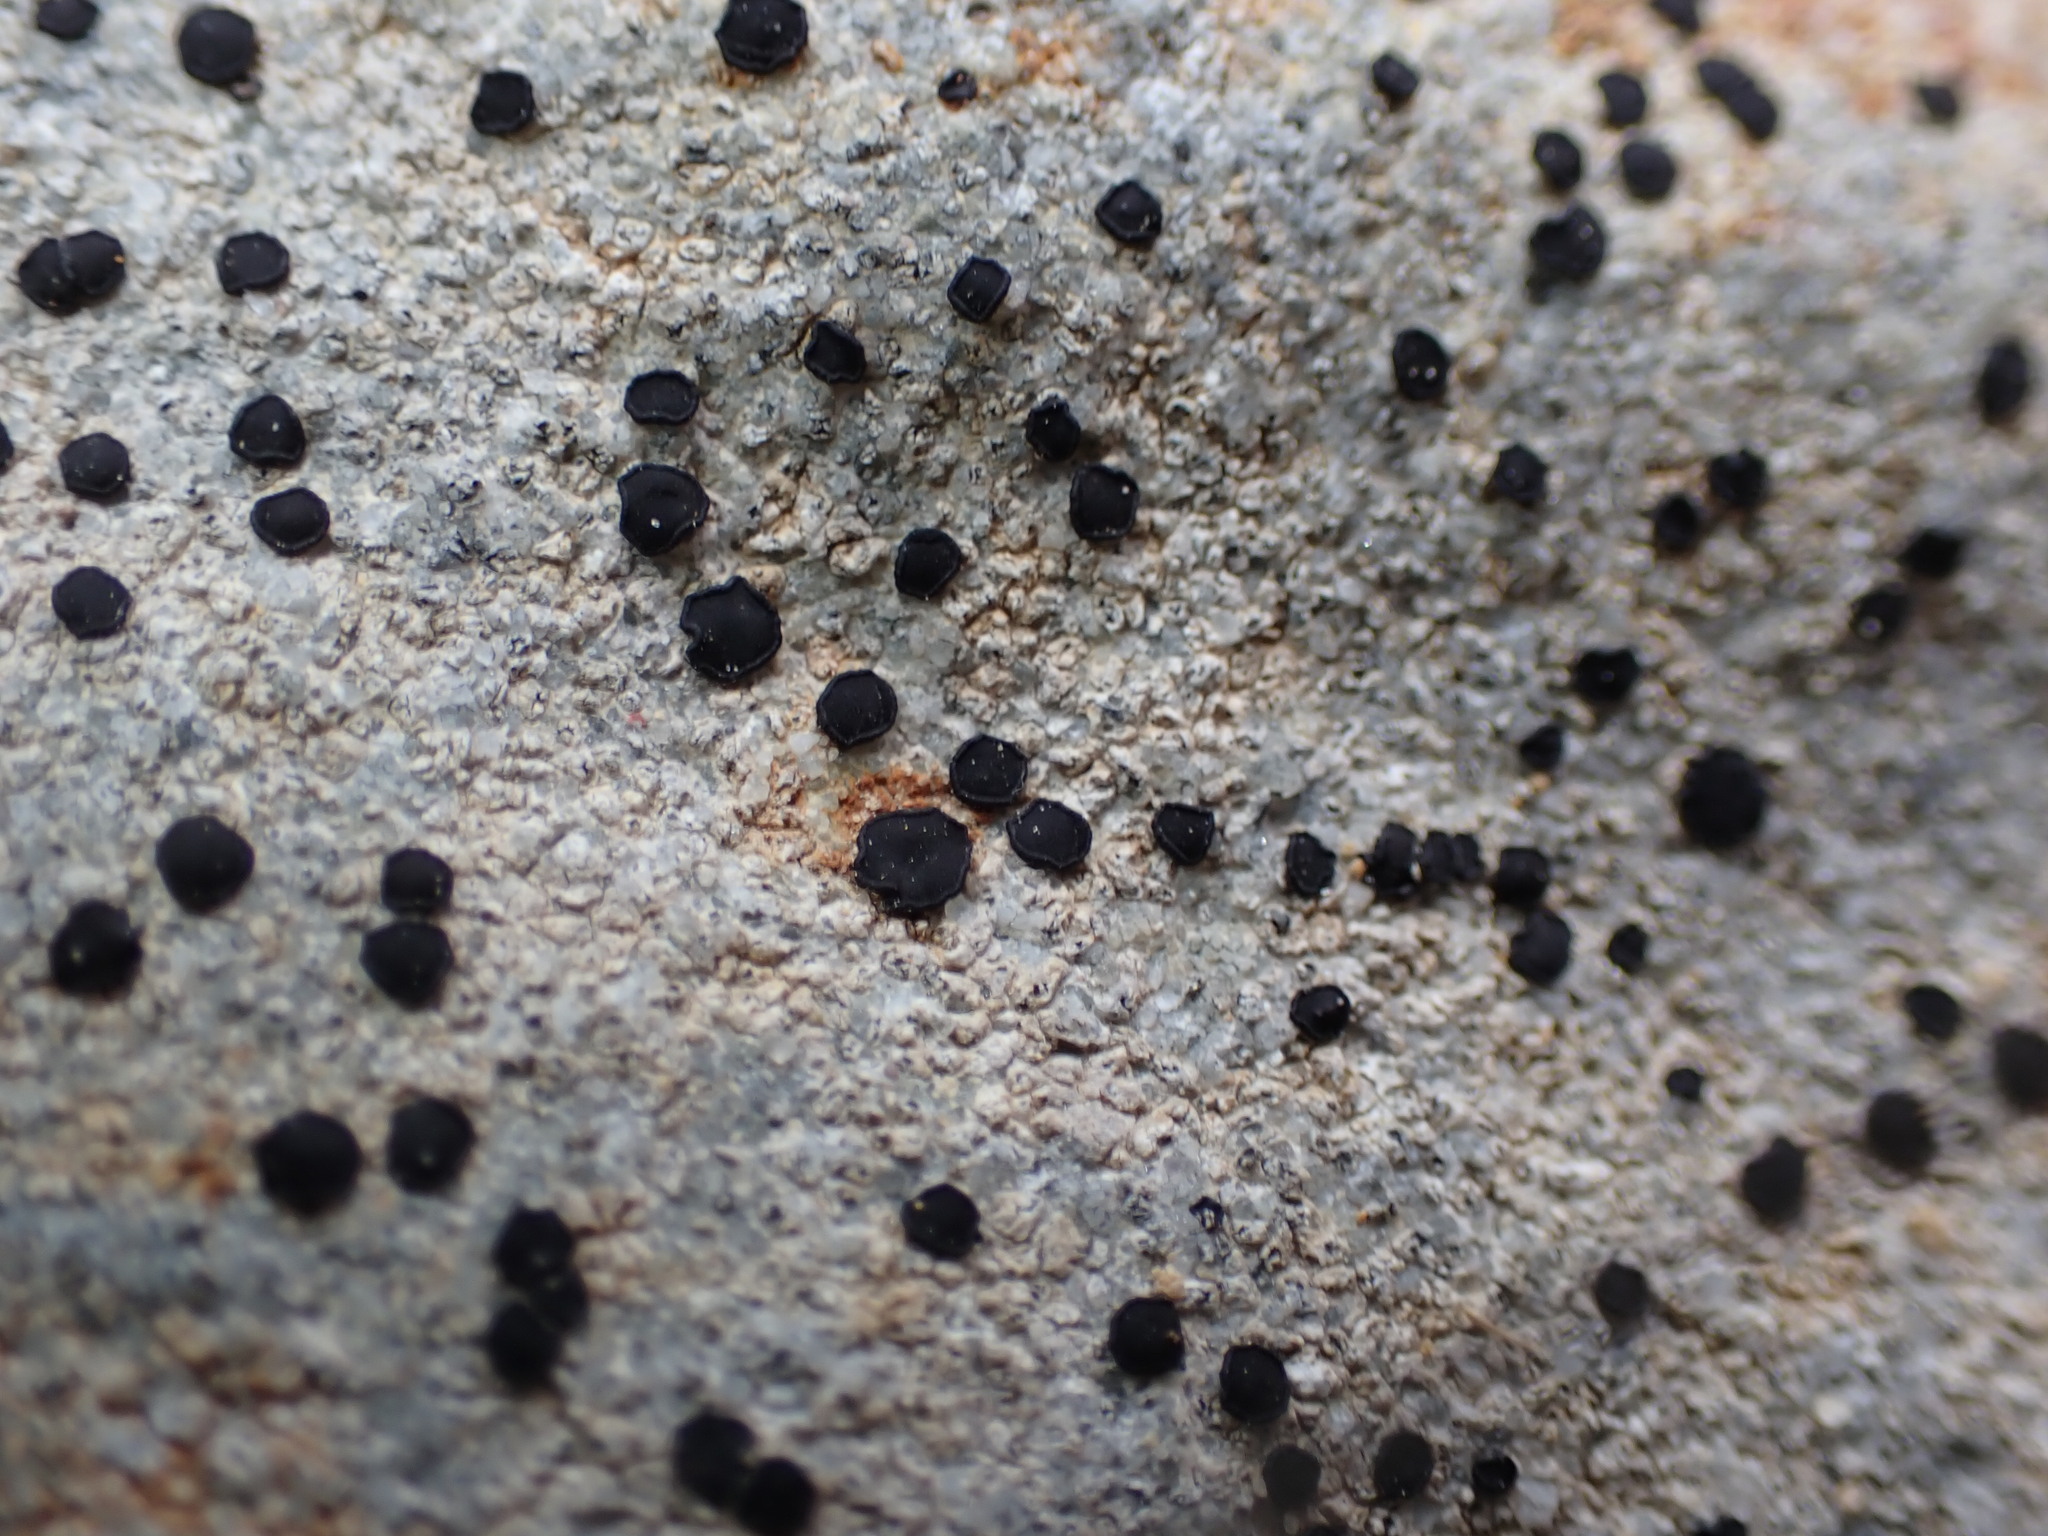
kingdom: Fungi
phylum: Ascomycota
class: Lecanoromycetes
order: Lecideales
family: Lecideaceae
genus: Porpidia
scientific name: Porpidia subsimplex
